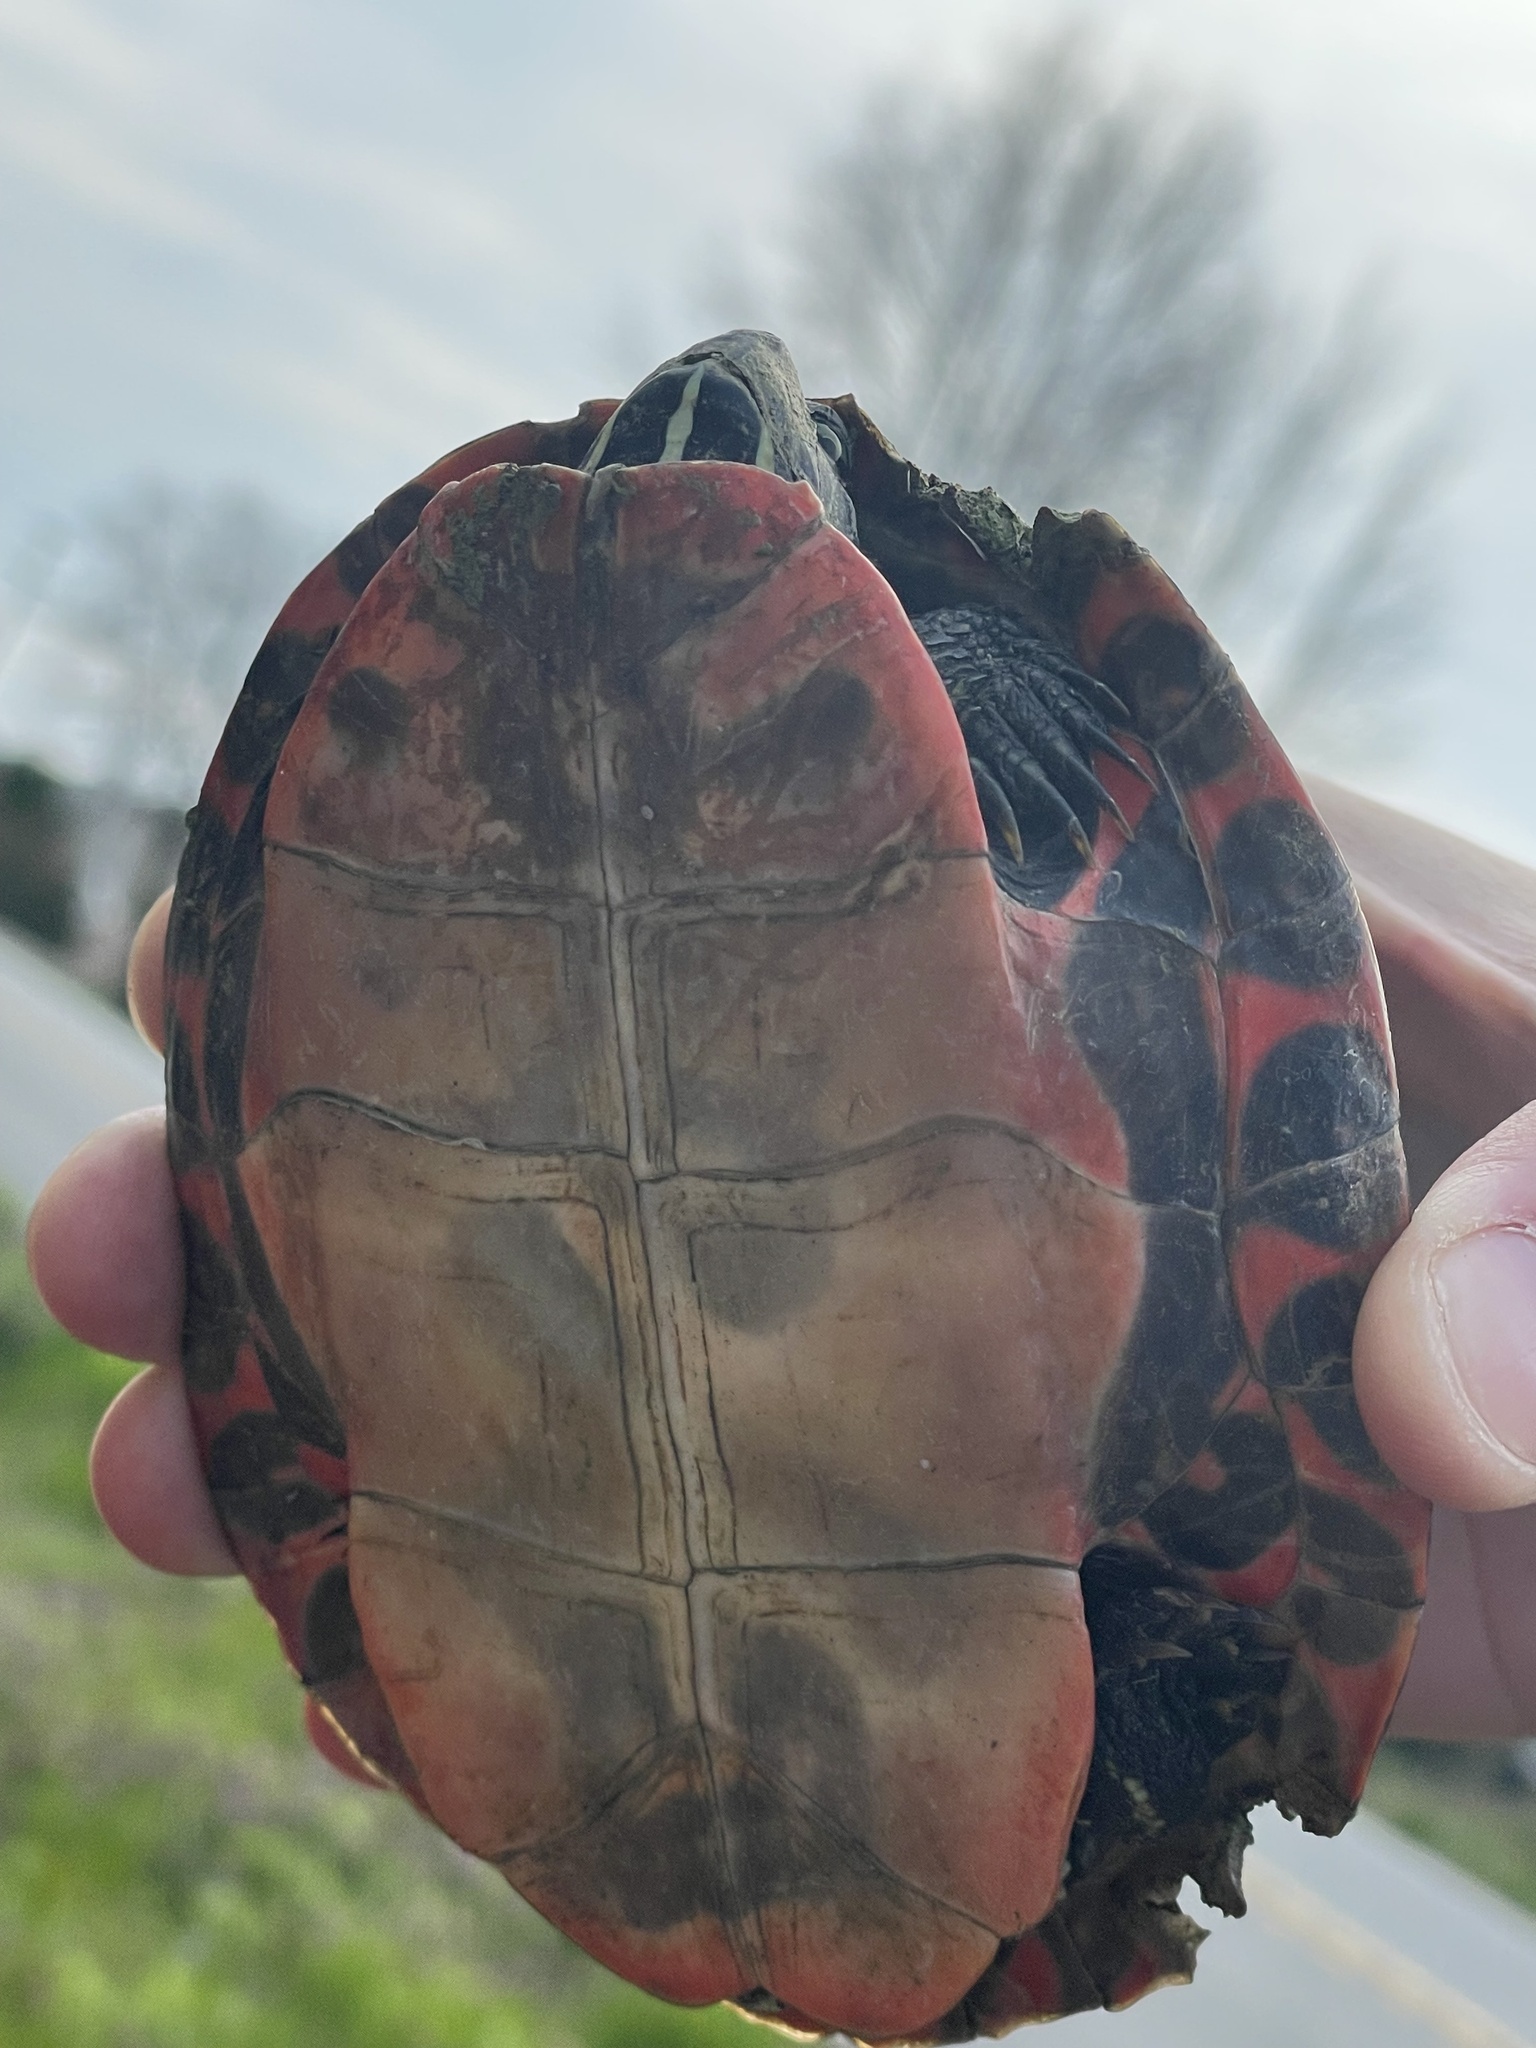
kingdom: Animalia
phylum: Chordata
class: Testudines
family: Emydidae
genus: Pseudemys
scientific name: Pseudemys rubriventris
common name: American red-bellied turtle
